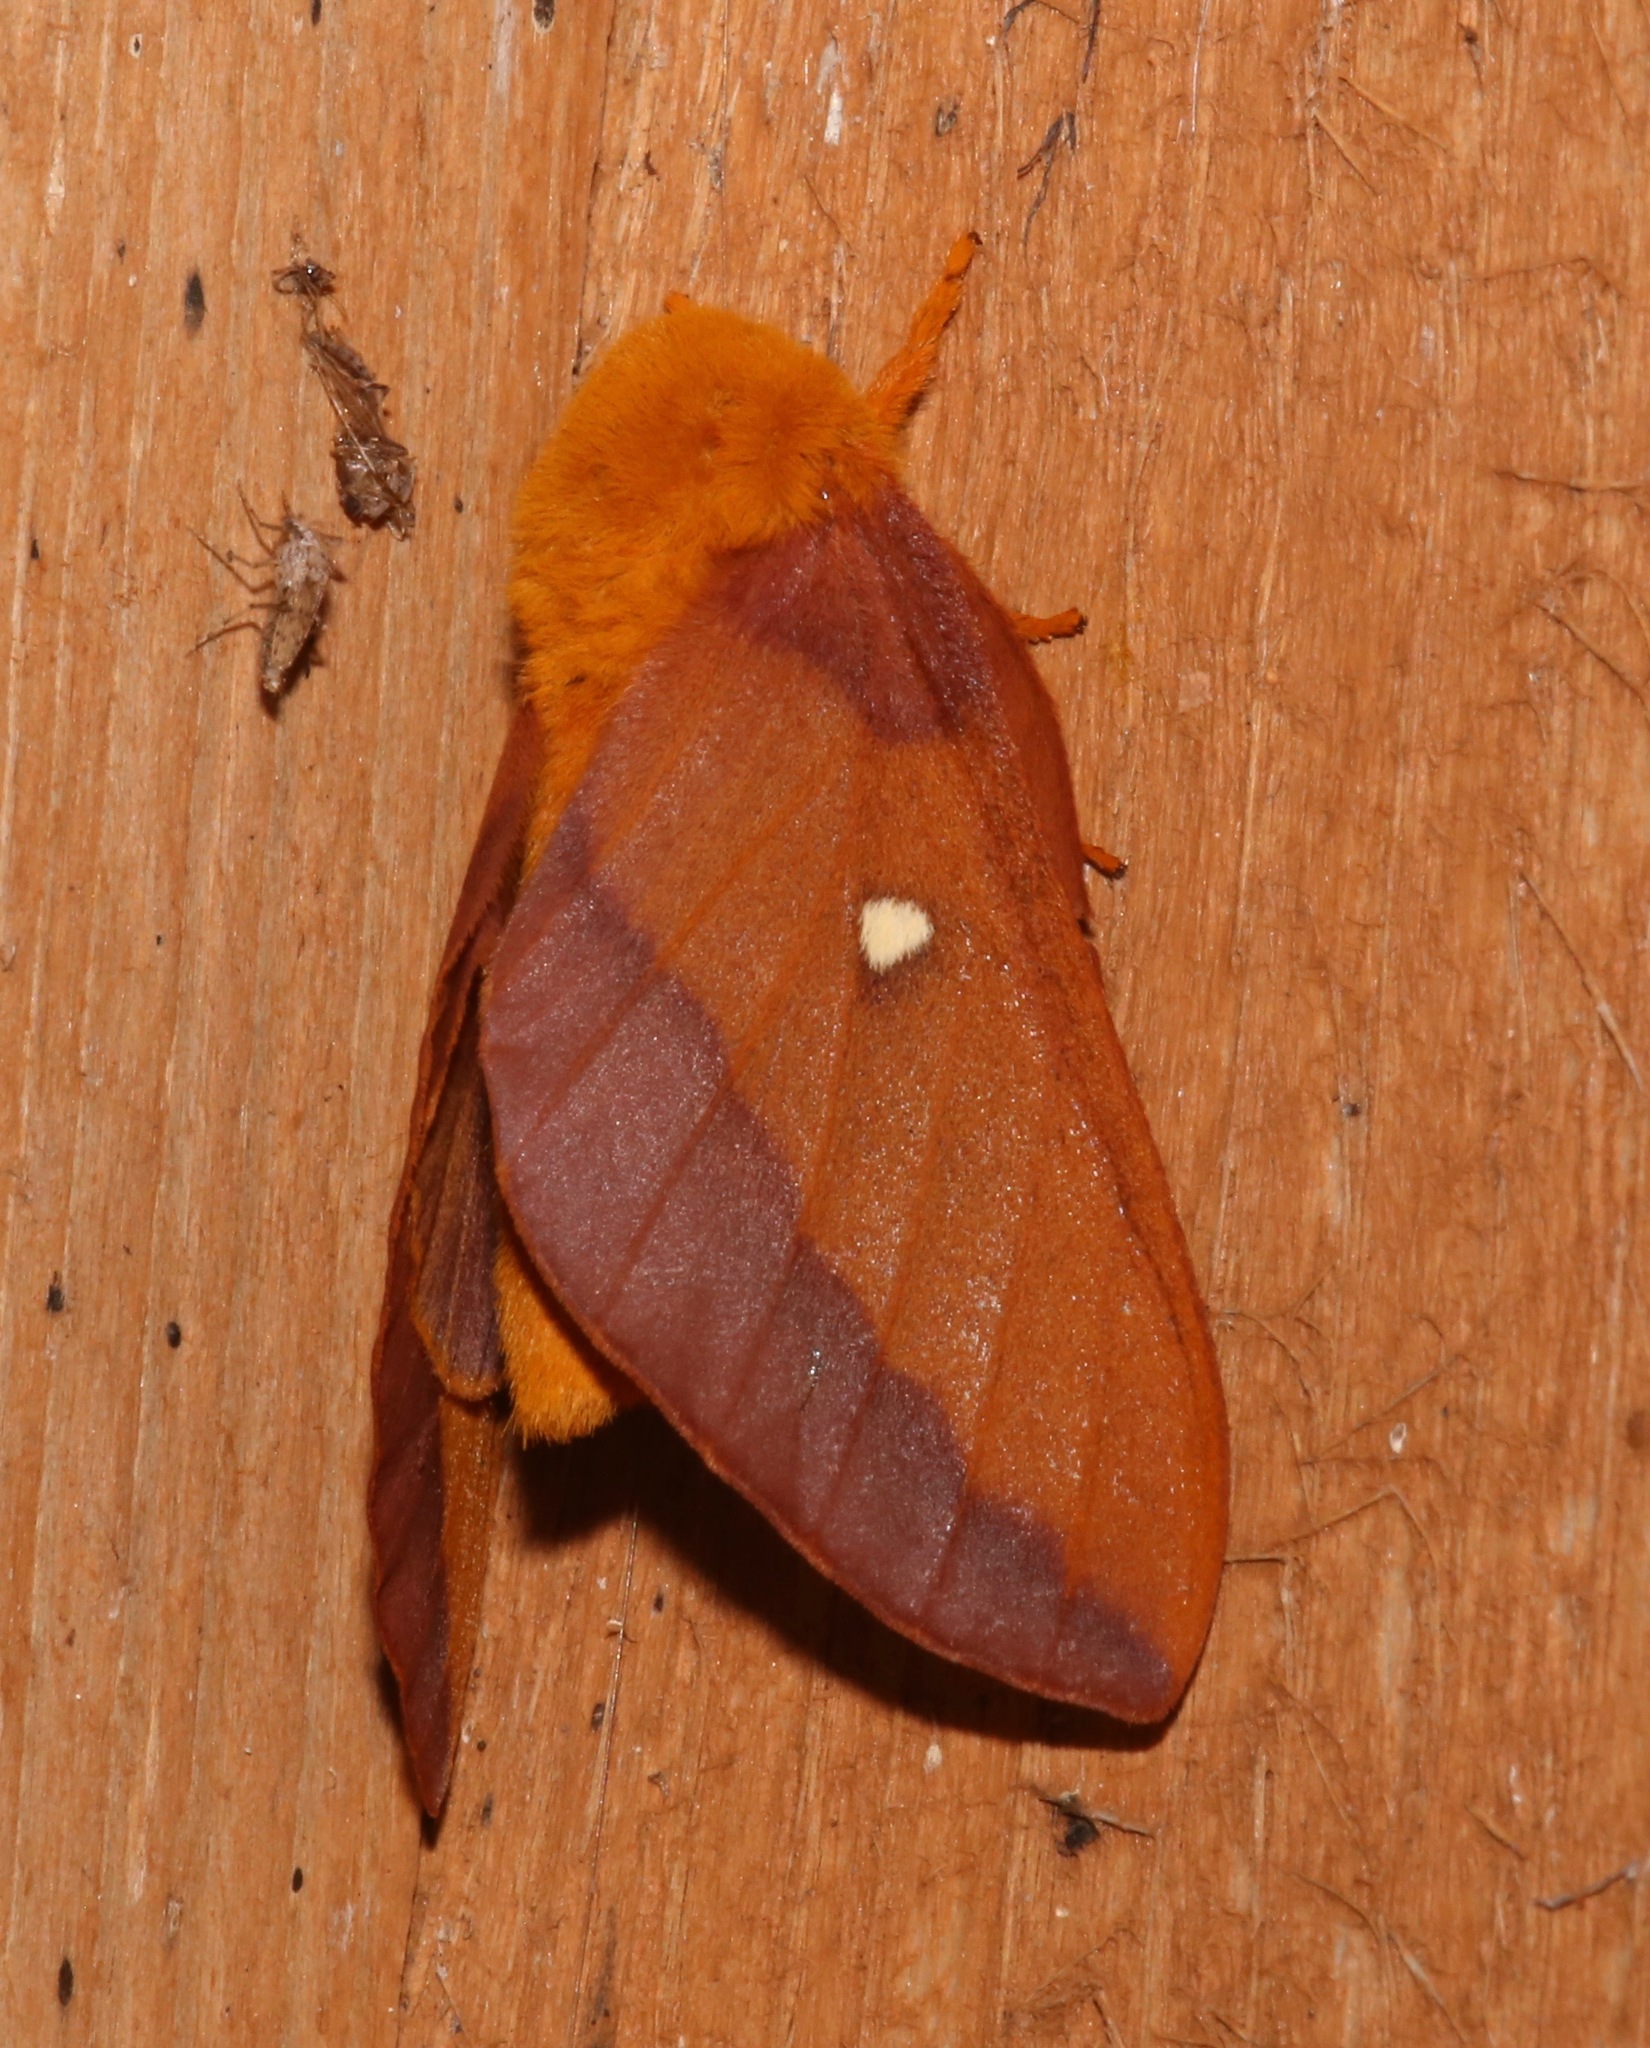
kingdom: Animalia
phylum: Arthropoda
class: Insecta
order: Lepidoptera
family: Saturniidae
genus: Anisota
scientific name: Anisota virginiensis
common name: Pink striped oakworm moth
